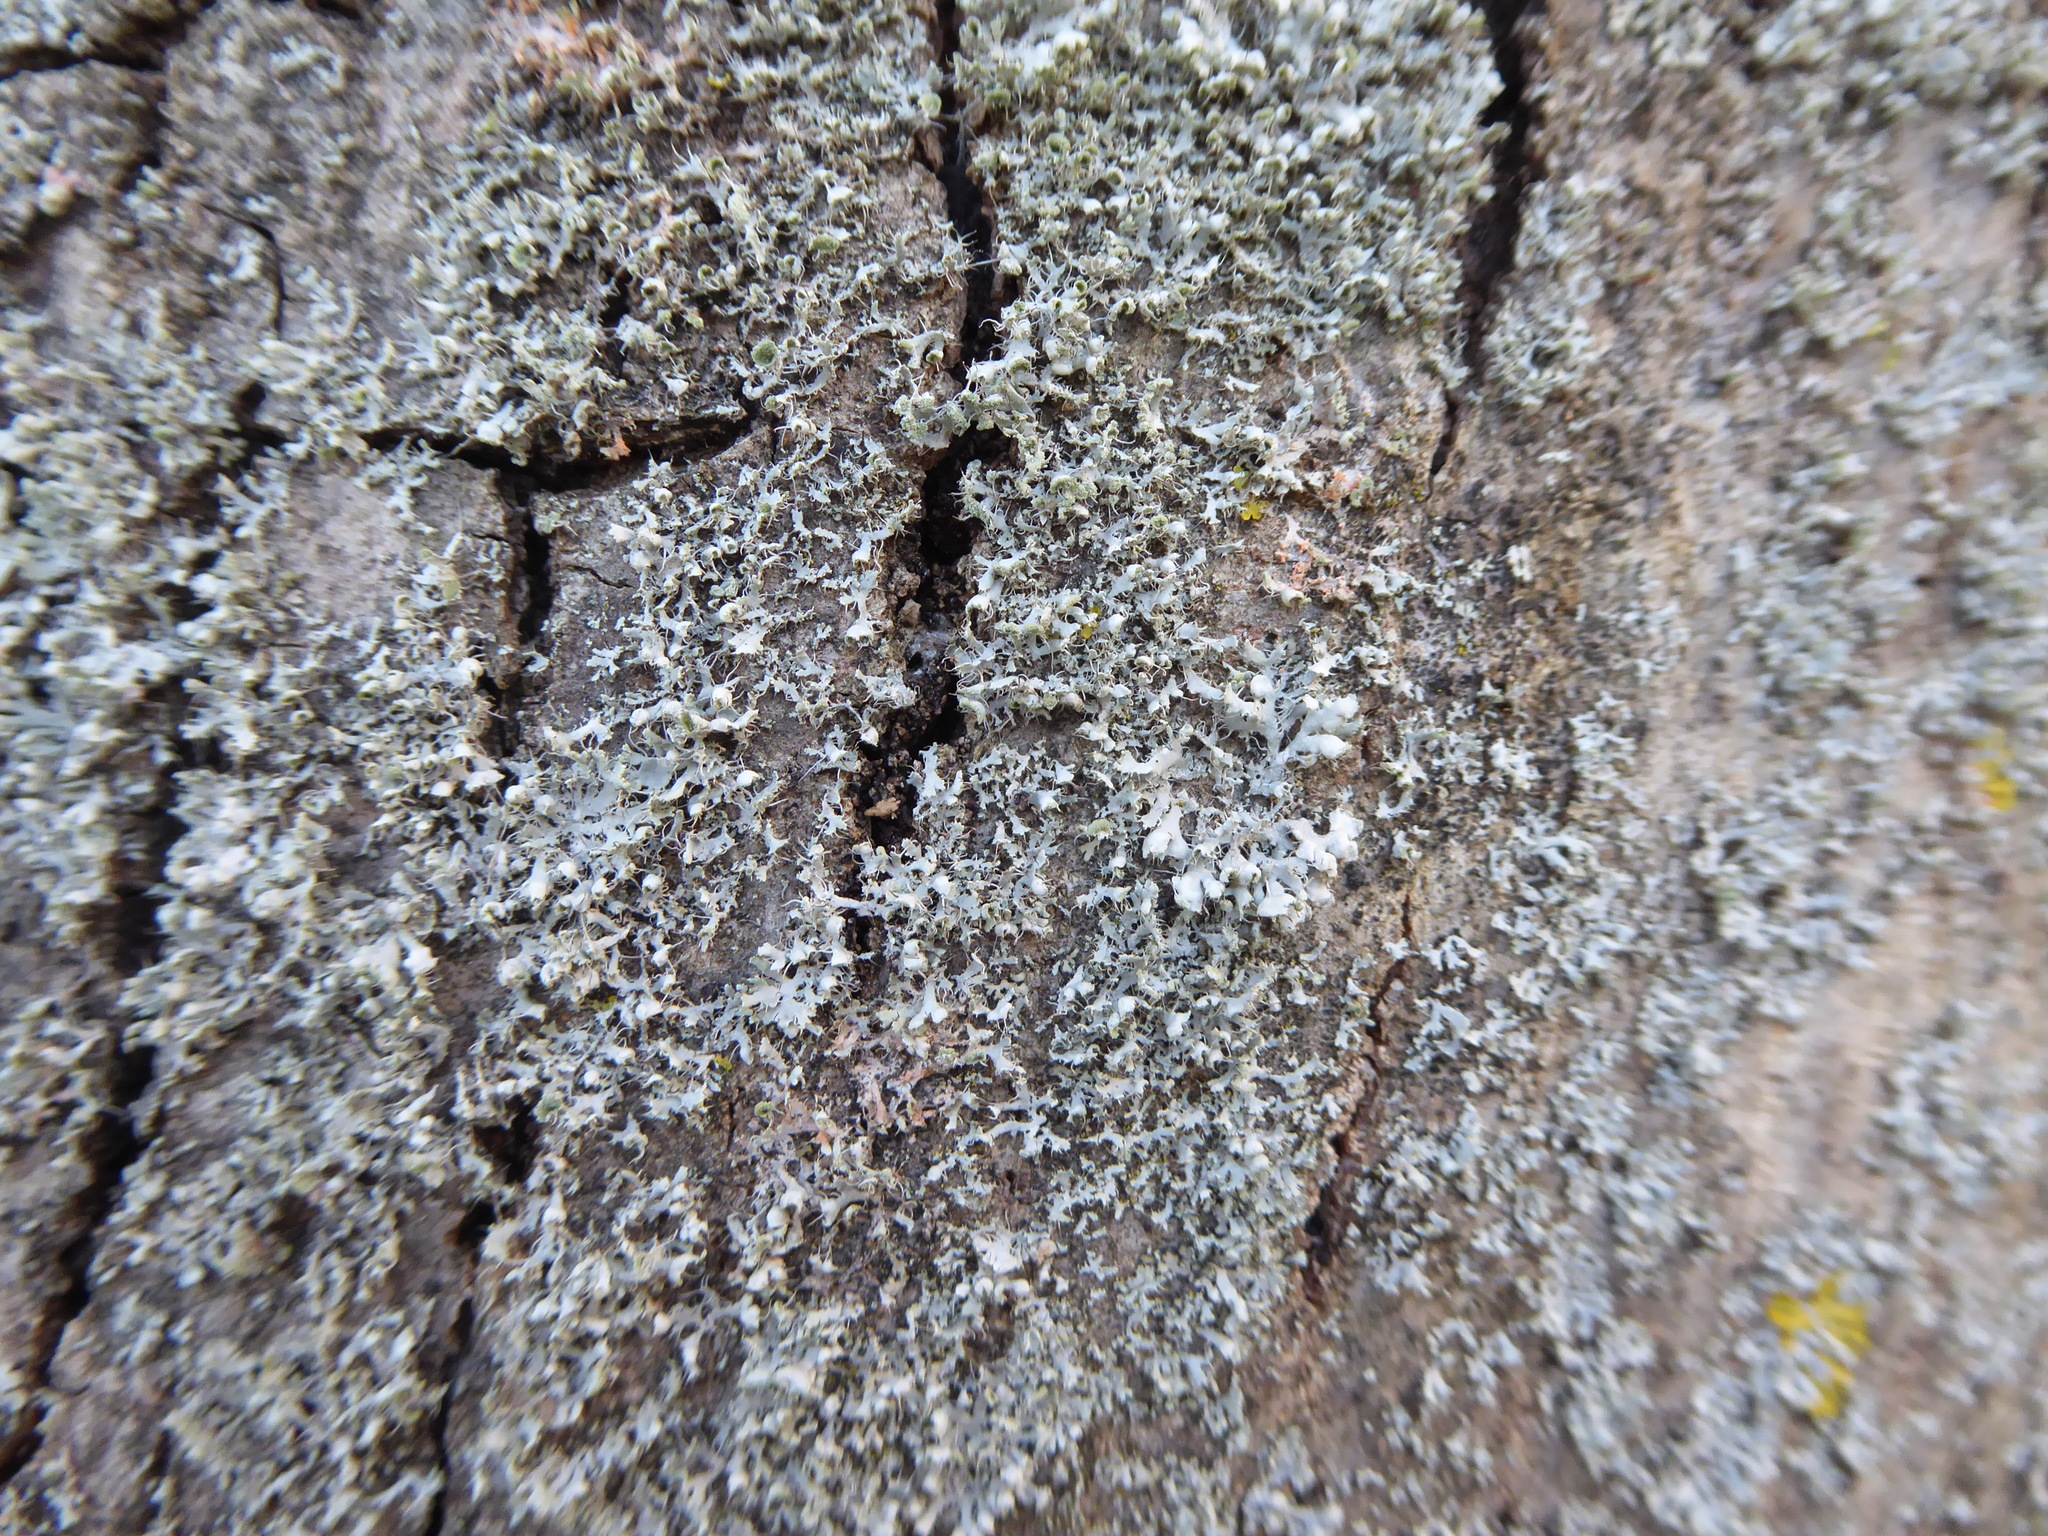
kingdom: Fungi
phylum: Ascomycota
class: Lecanoromycetes
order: Caliciales
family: Physciaceae
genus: Physcia
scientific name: Physcia adscendens
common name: Hooded rosette lichen
